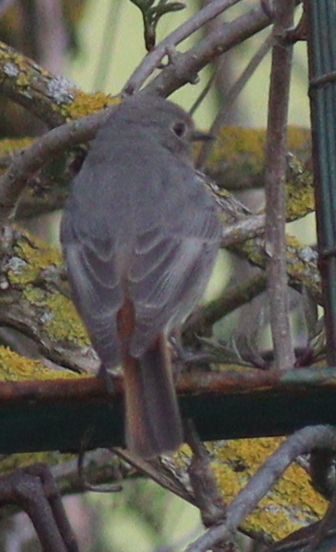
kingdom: Animalia
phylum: Chordata
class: Aves
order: Passeriformes
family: Muscicapidae
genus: Phoenicurus
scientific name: Phoenicurus ochruros
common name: Black redstart
